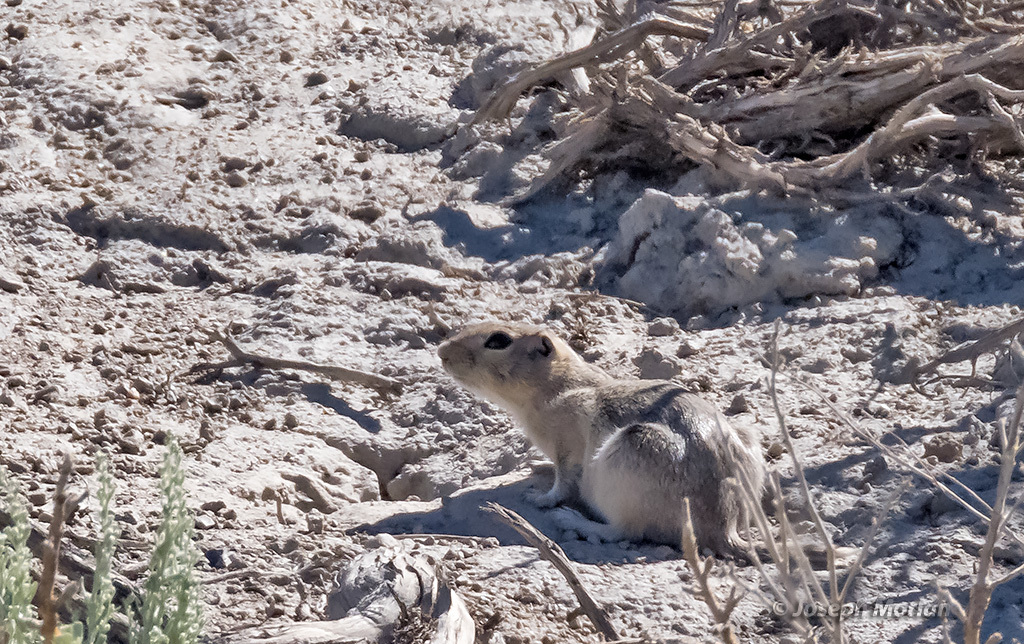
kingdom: Animalia
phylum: Chordata
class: Mammalia
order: Rodentia
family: Sciuridae
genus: Urocitellus
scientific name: Urocitellus mollis
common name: Piute ground squirrel
